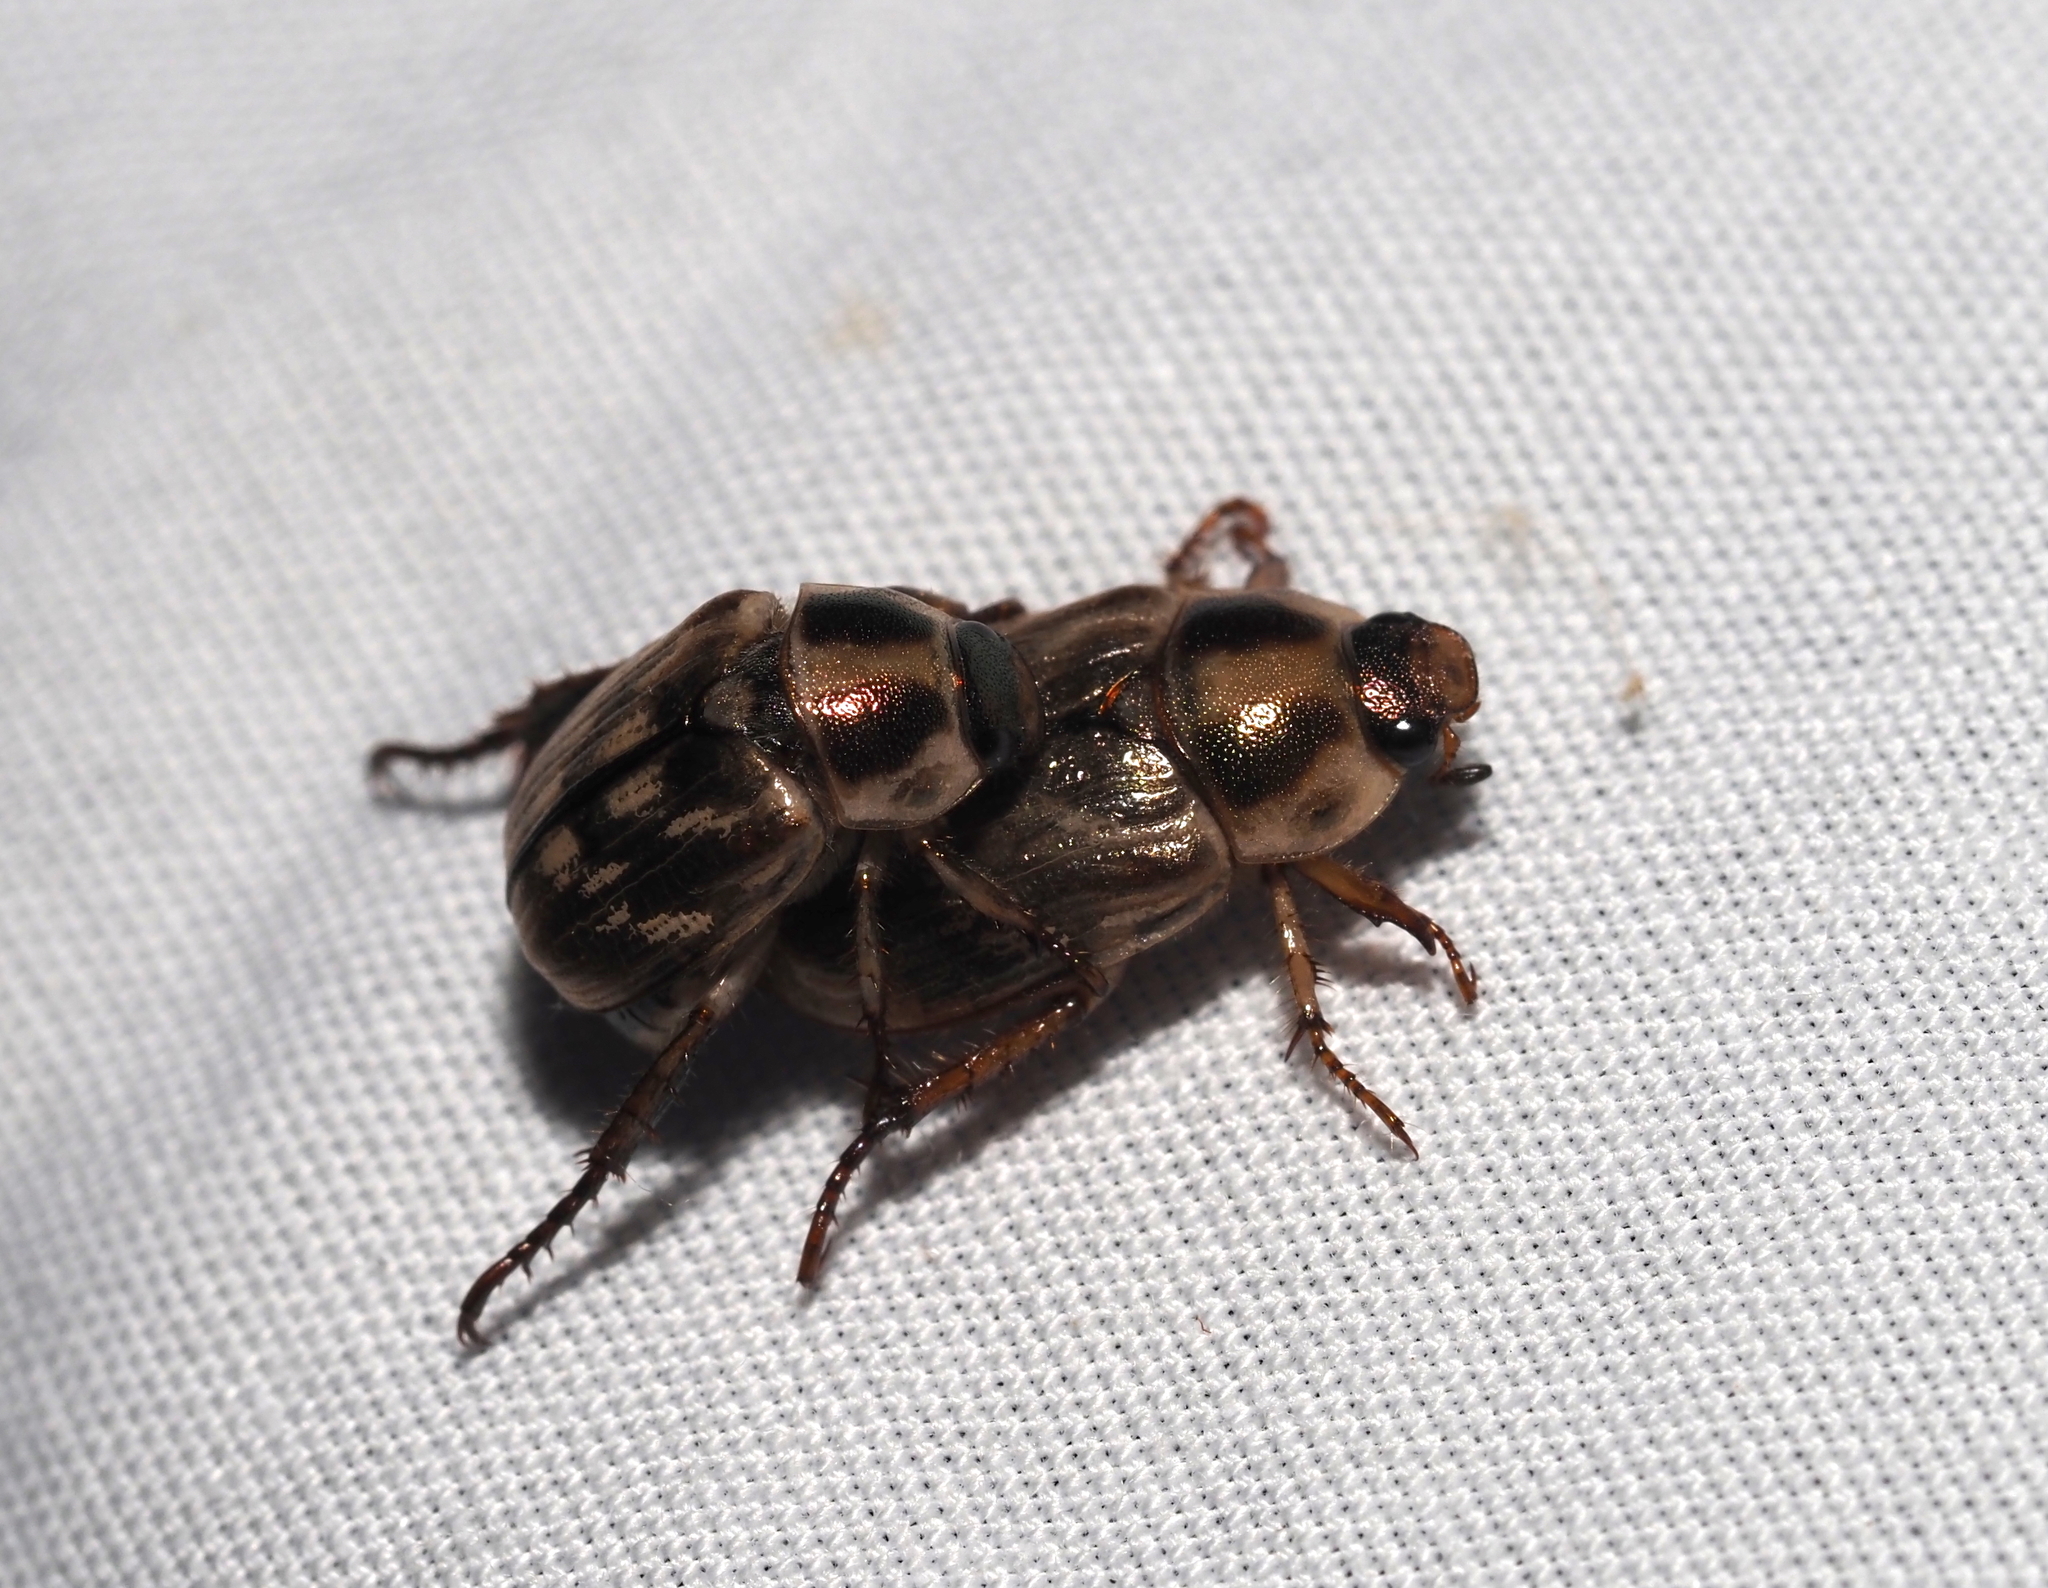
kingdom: Animalia
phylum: Arthropoda
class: Insecta
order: Coleoptera
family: Scarabaeidae
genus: Exomala
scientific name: Exomala orientalis
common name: Oriental beetle
